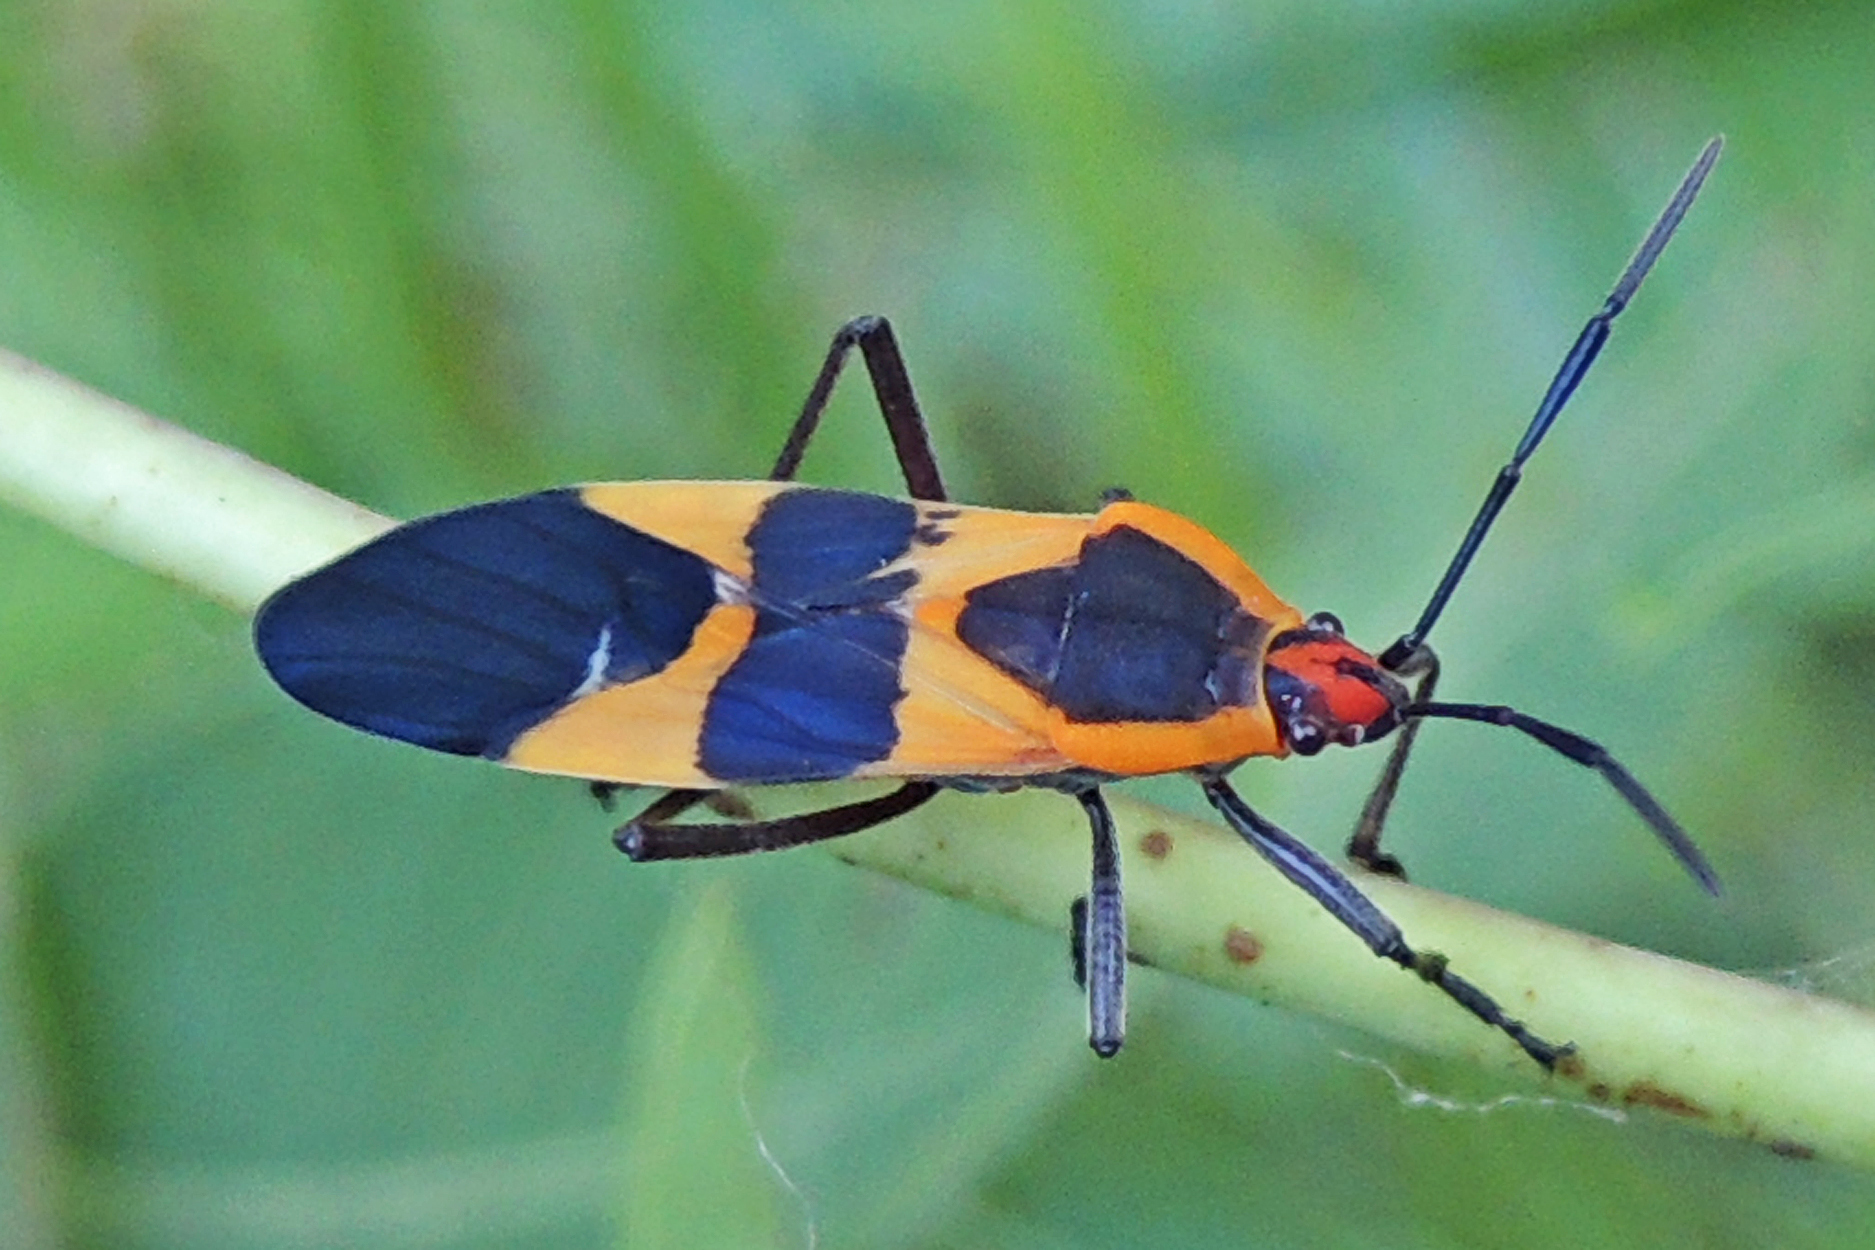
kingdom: Animalia
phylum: Arthropoda
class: Insecta
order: Hemiptera
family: Lygaeidae
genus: Oncopeltus
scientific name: Oncopeltus fasciatus
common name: Large milkweed bug
